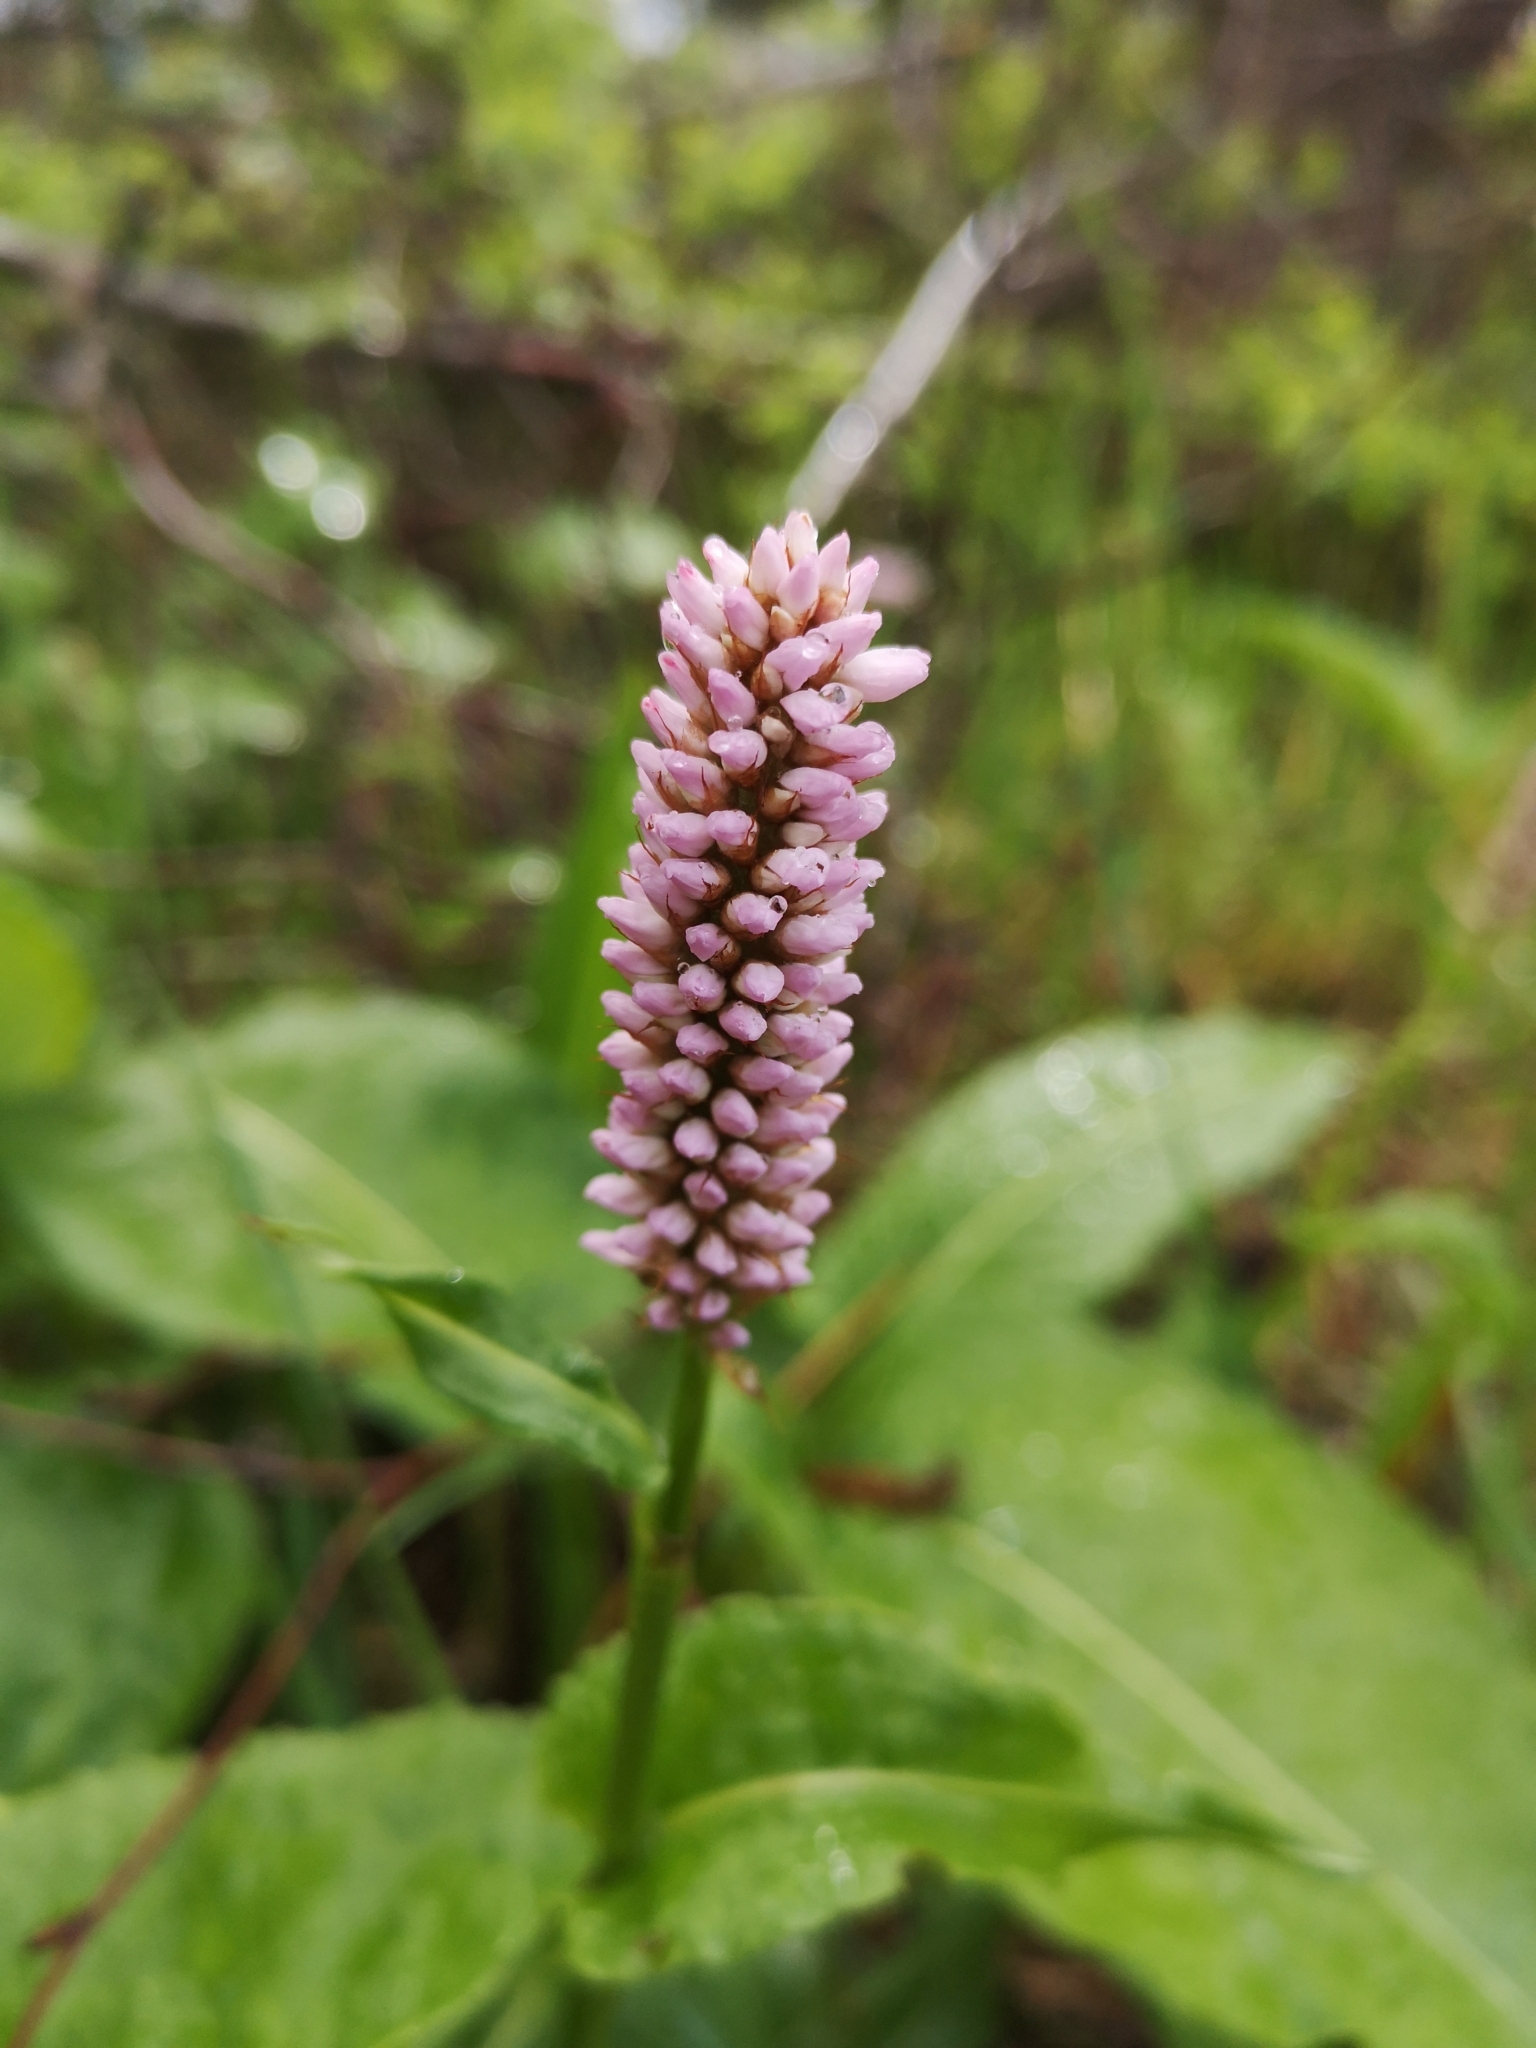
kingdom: Plantae
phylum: Tracheophyta
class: Magnoliopsida
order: Caryophyllales
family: Polygonaceae
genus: Bistorta
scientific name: Bistorta officinalis
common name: Common bistort
